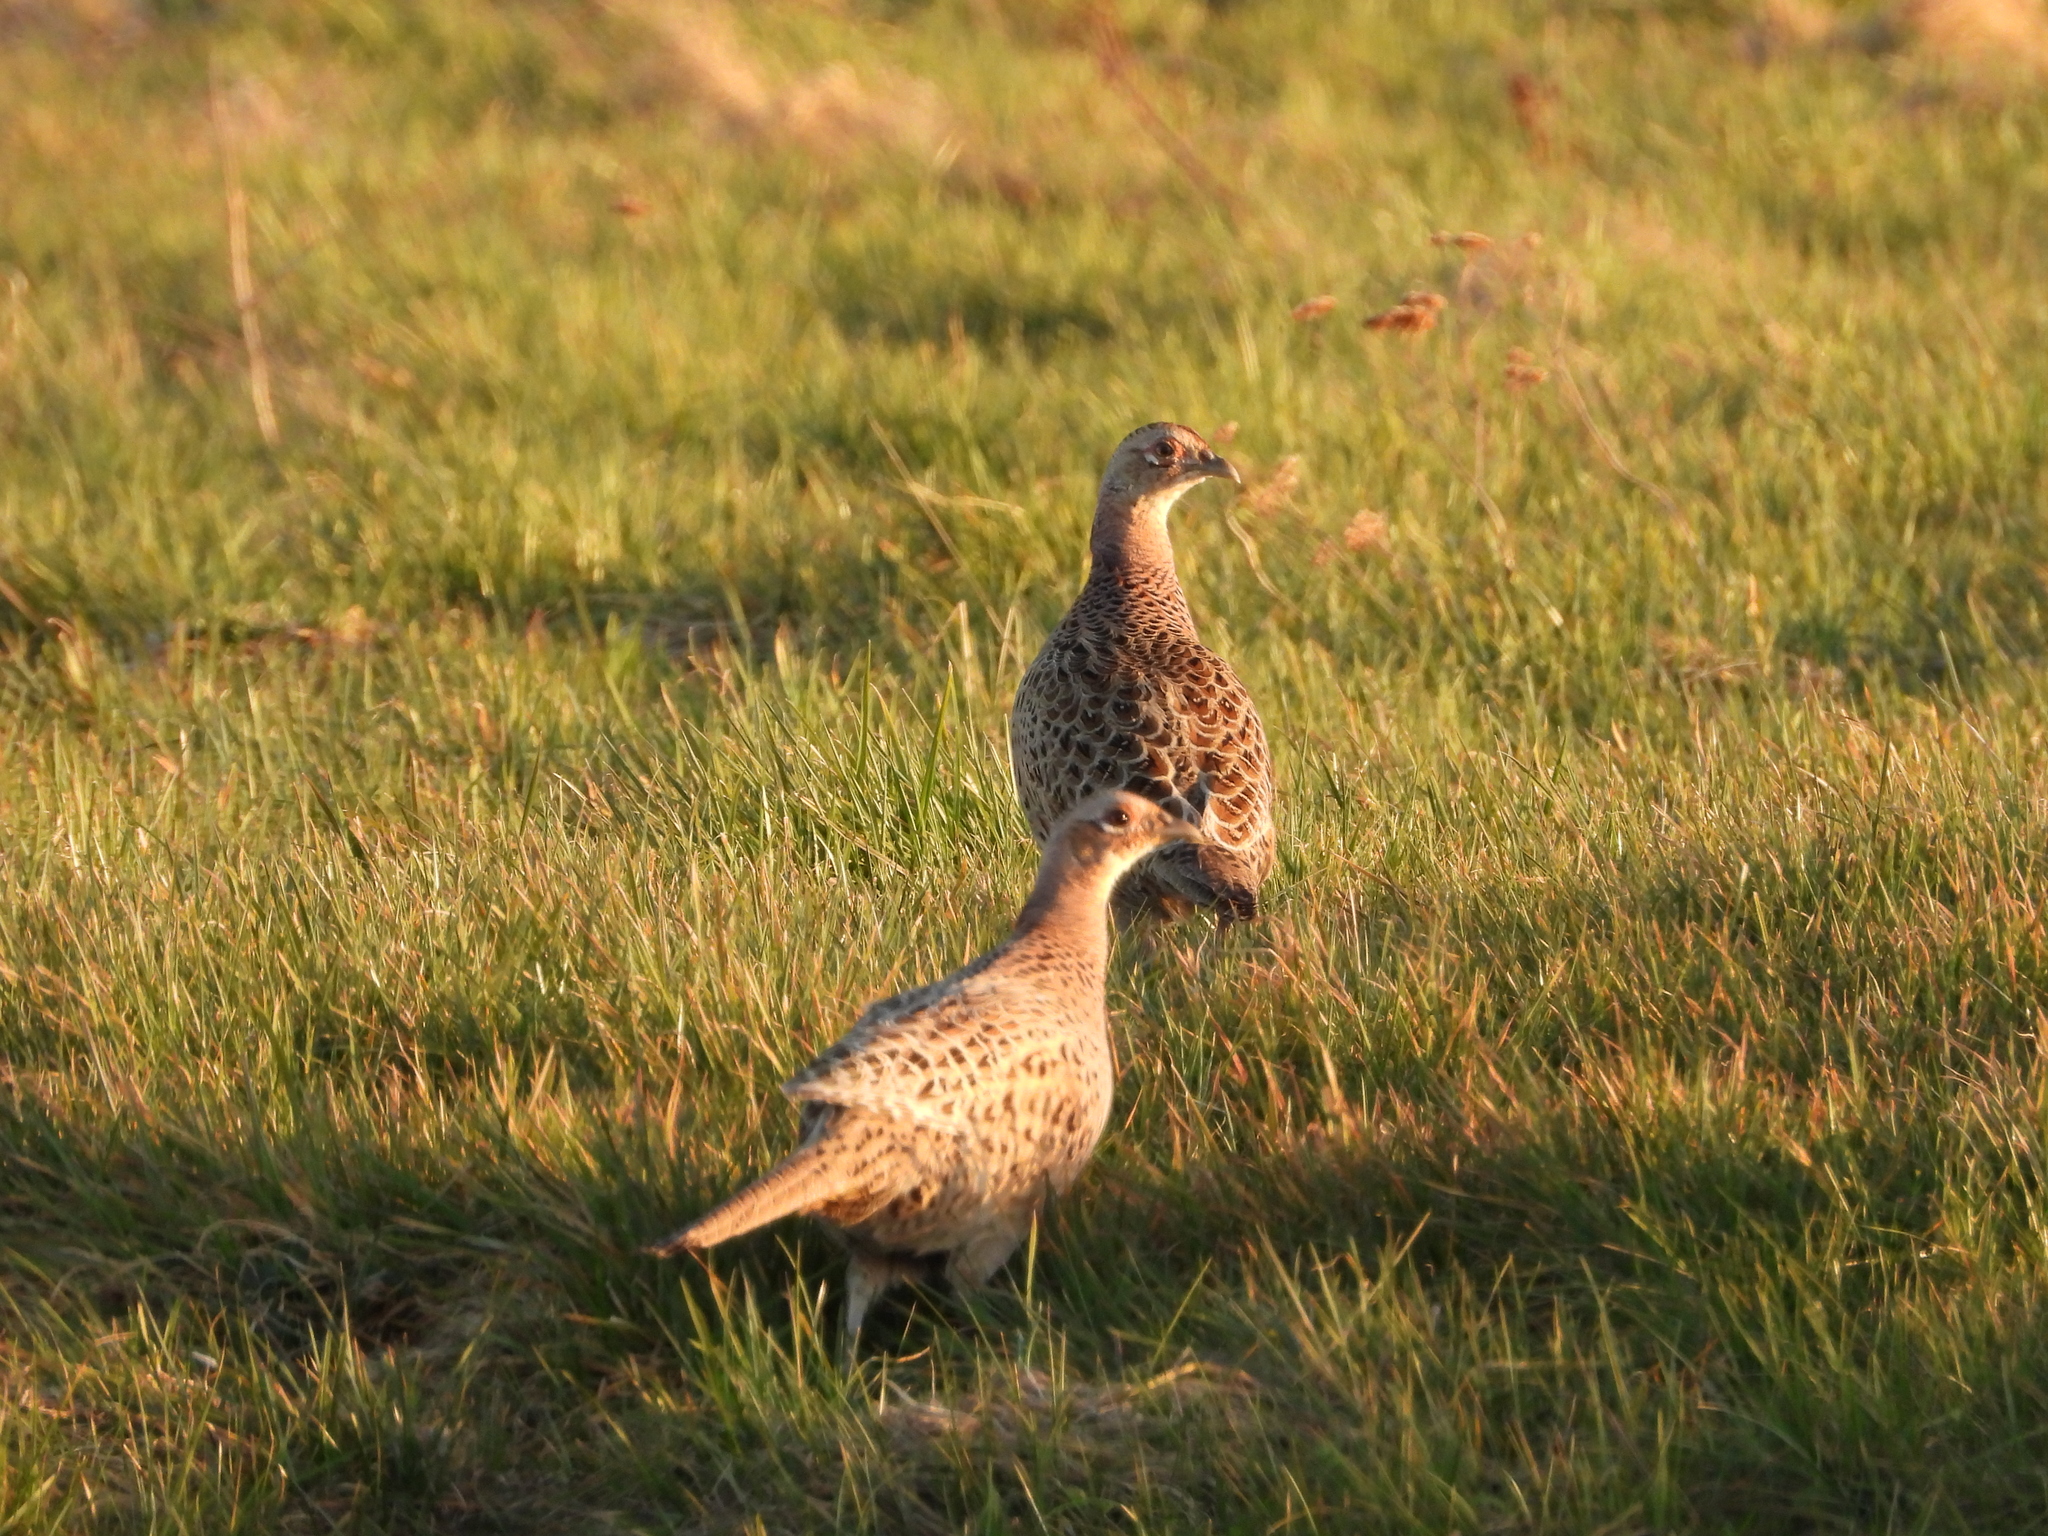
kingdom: Animalia
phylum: Chordata
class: Aves
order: Galliformes
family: Phasianidae
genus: Phasianus
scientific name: Phasianus colchicus
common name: Common pheasant
